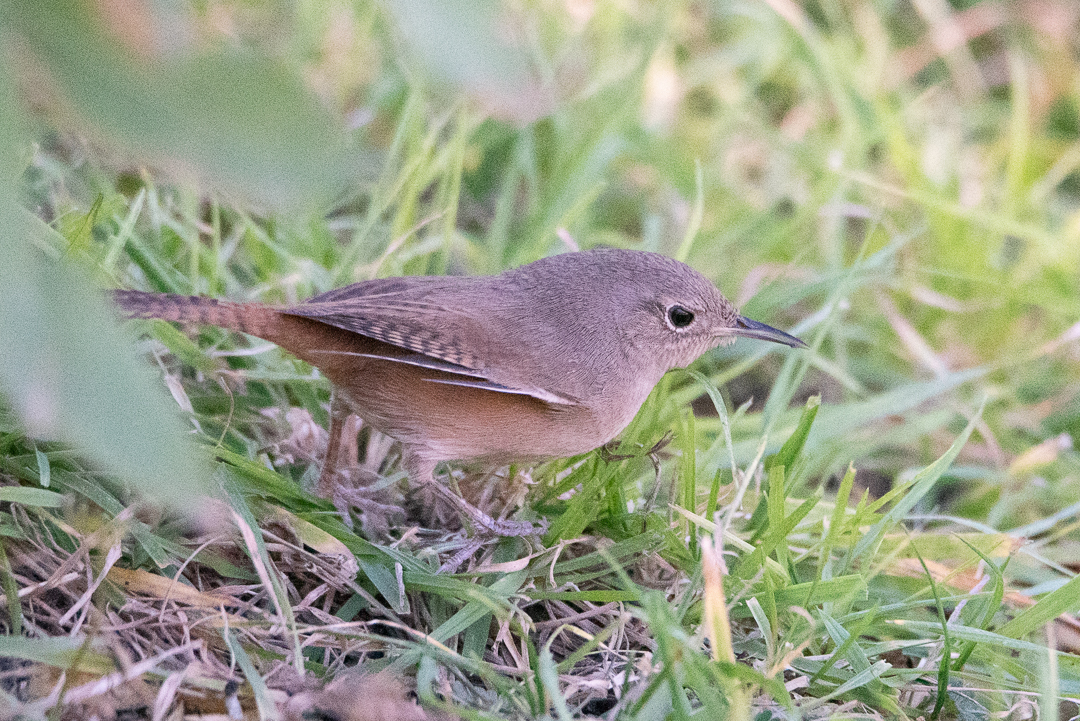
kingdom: Animalia
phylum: Chordata
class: Aves
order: Passeriformes
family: Troglodytidae
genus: Troglodytes
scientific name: Troglodytes aedon
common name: House wren
